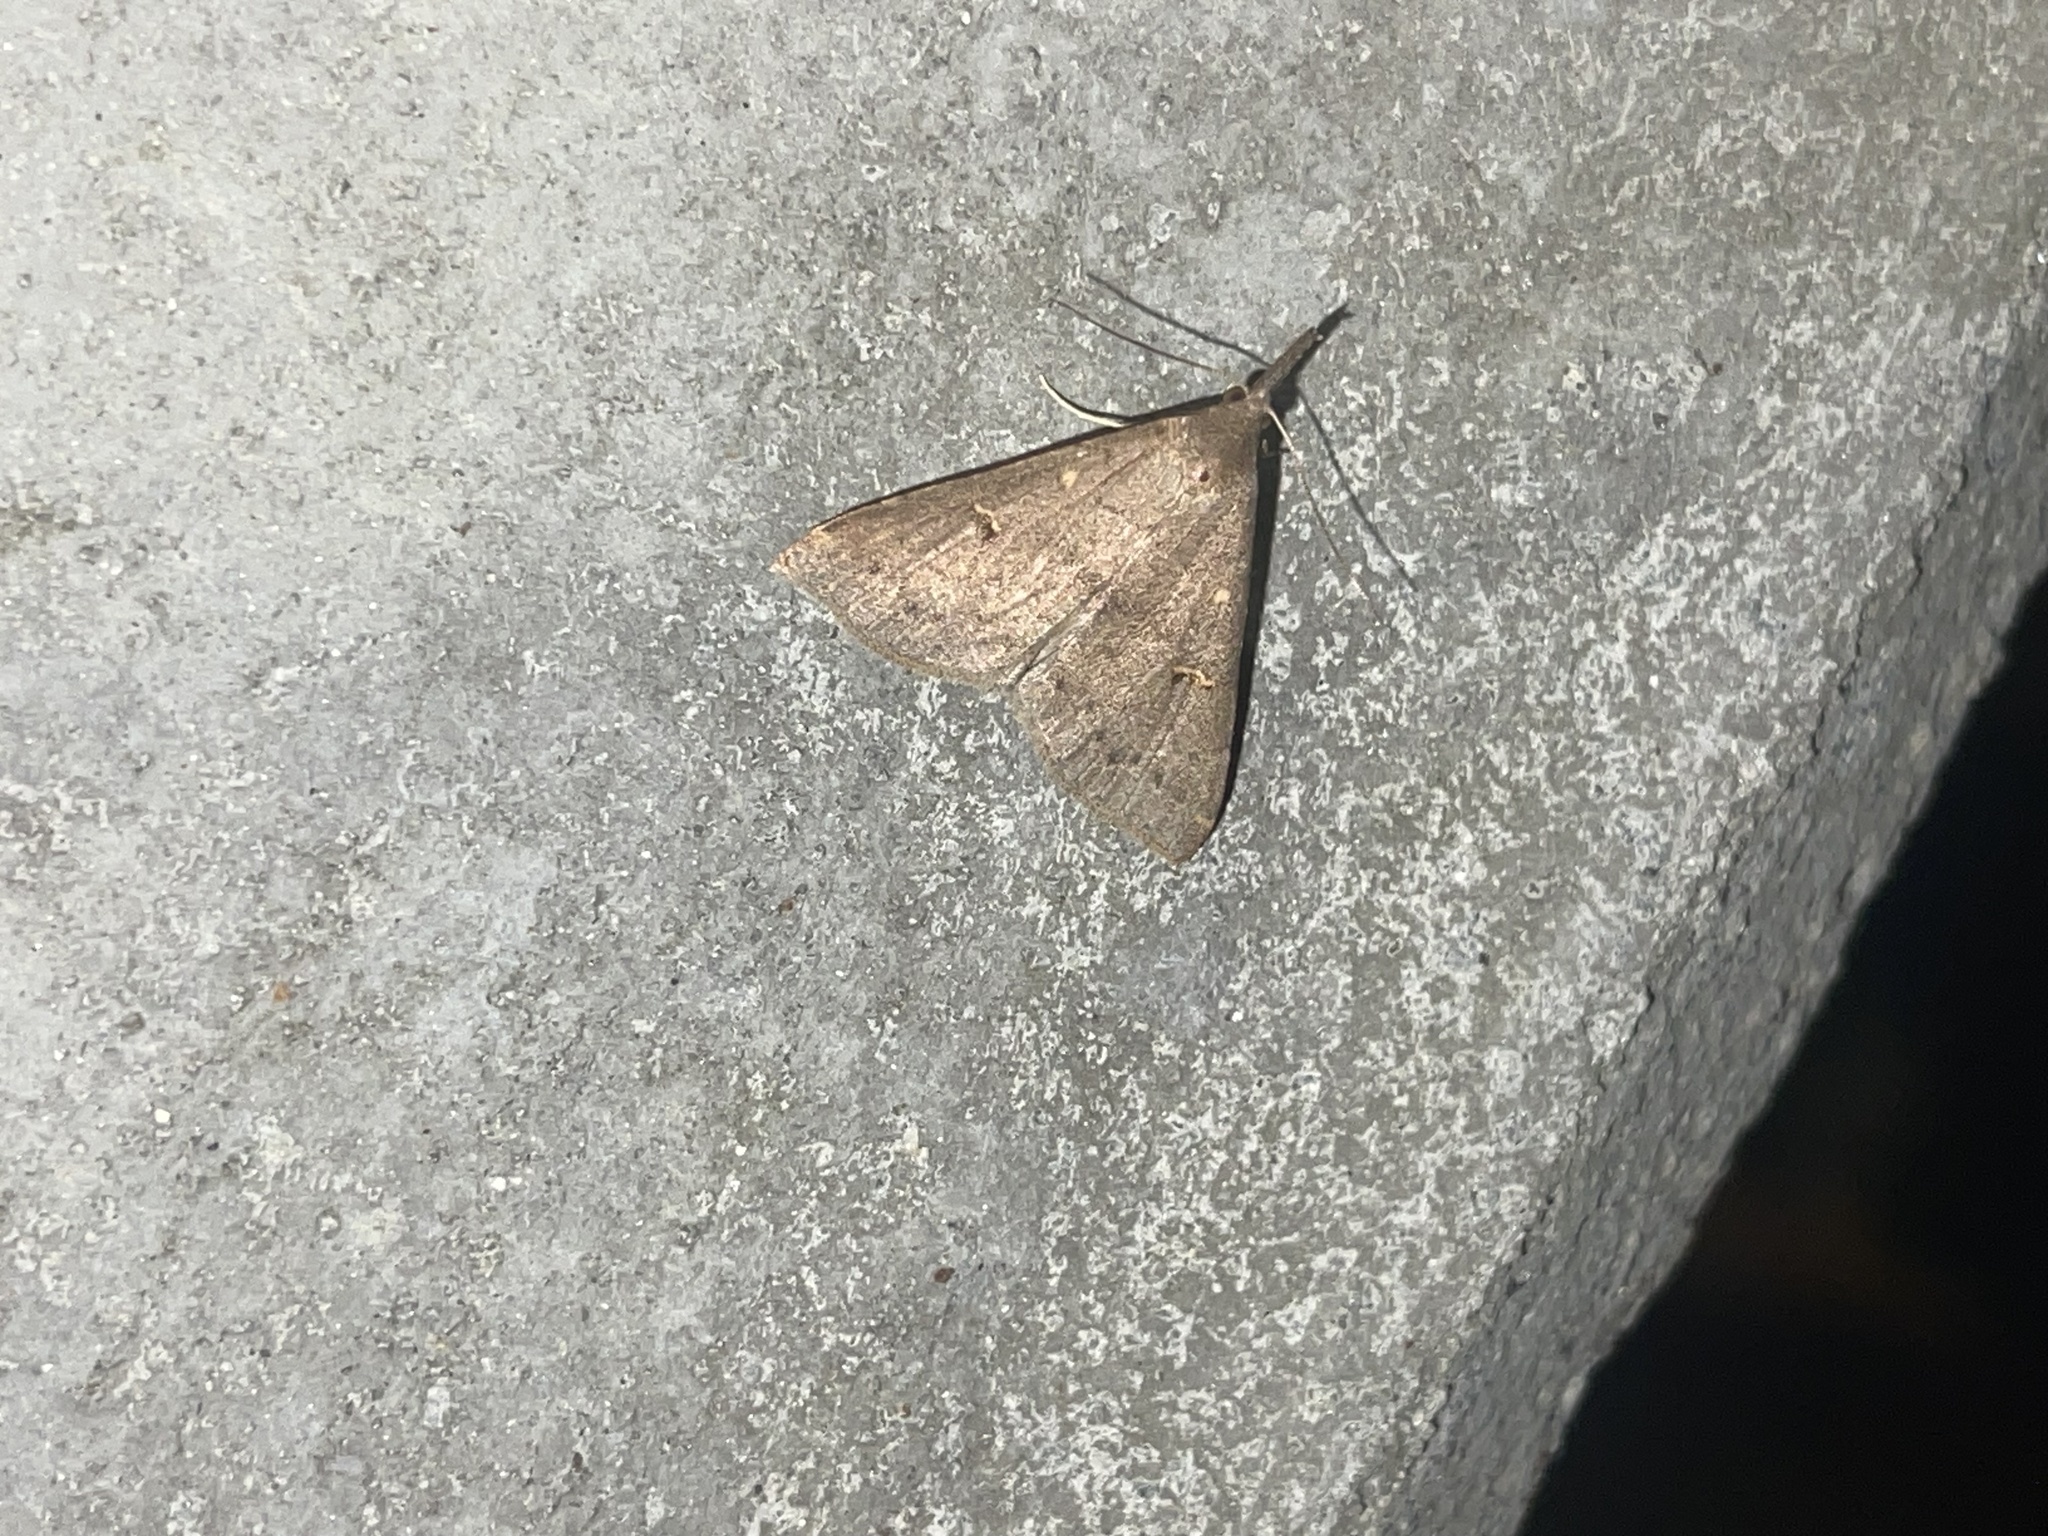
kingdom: Animalia
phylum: Arthropoda
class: Insecta
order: Lepidoptera
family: Erebidae
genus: Renia
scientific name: Renia adspergillus
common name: Speckled renia moth
